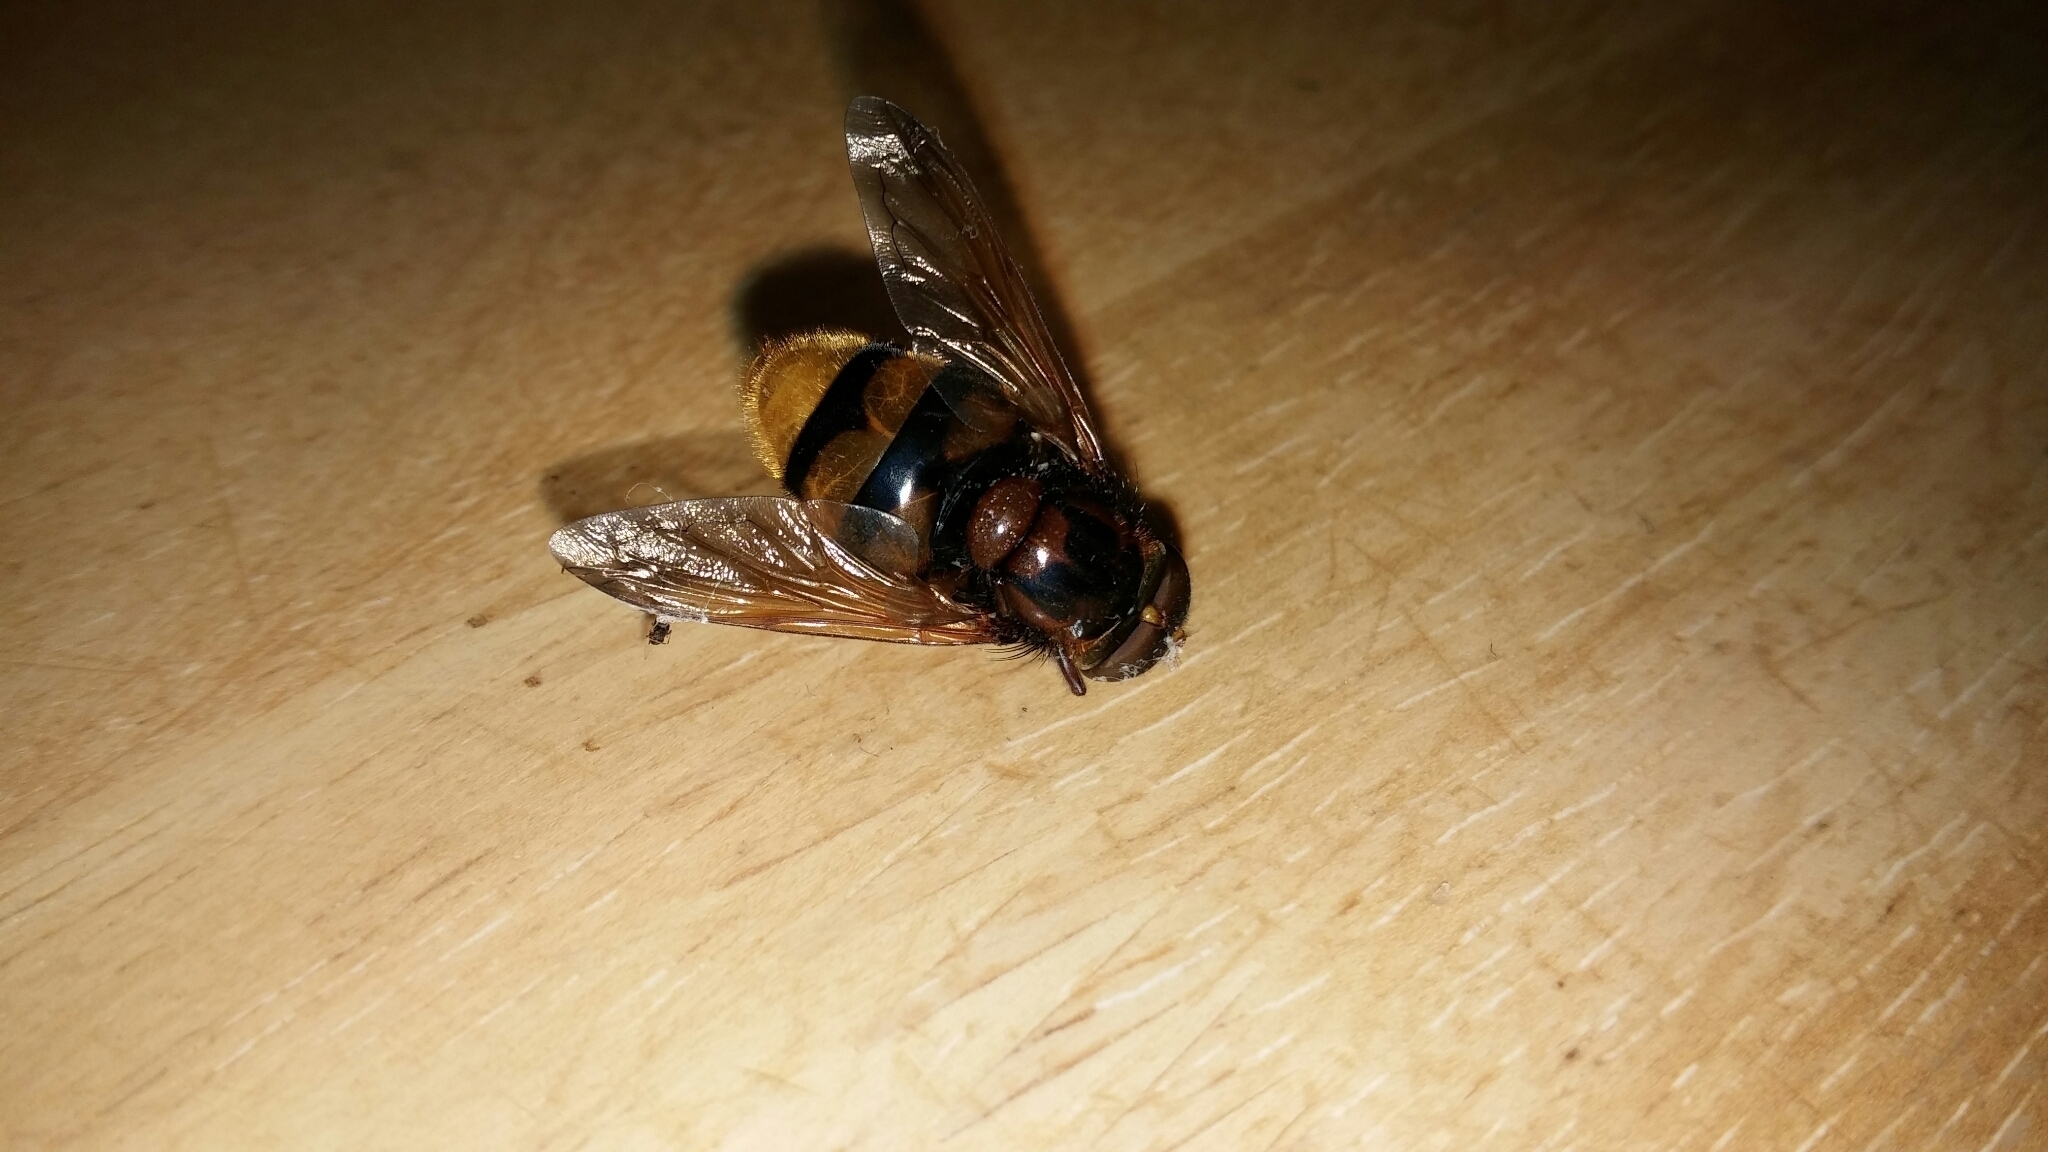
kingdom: Animalia
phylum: Arthropoda
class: Insecta
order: Diptera
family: Syrphidae
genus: Volucella
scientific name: Volucella zonaria
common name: Hornet hoverfly
